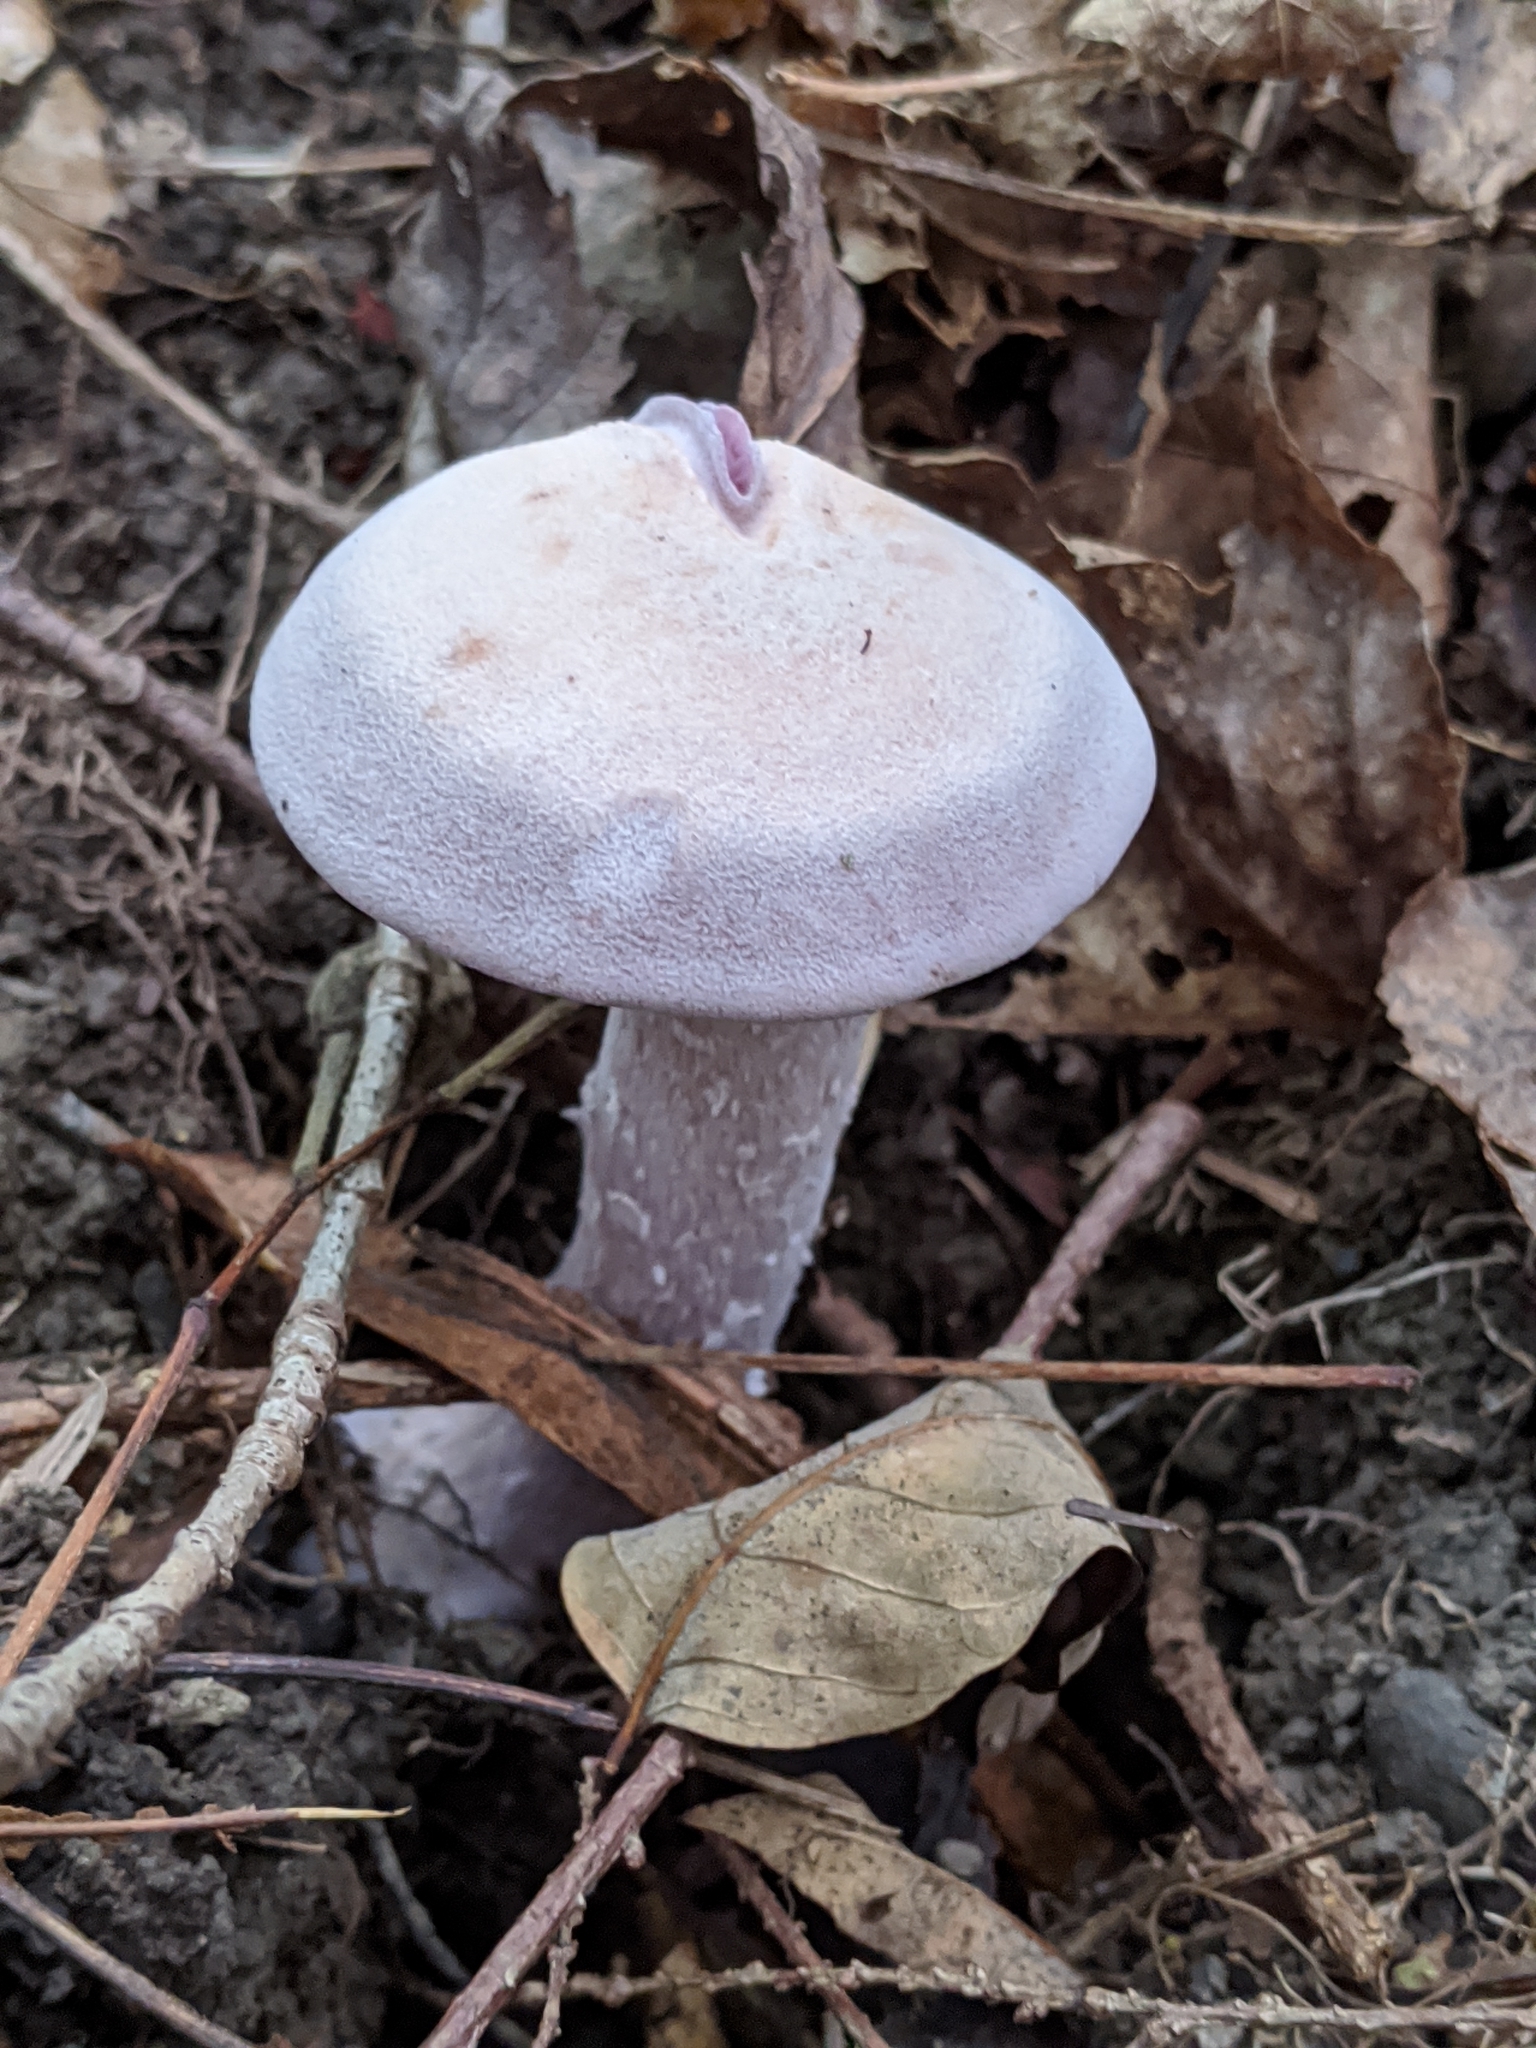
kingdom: Fungi
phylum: Basidiomycota
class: Agaricomycetes
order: Agaricales
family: Hydnangiaceae
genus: Laccaria
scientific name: Laccaria ochropurpurea
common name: Purple laccaria
